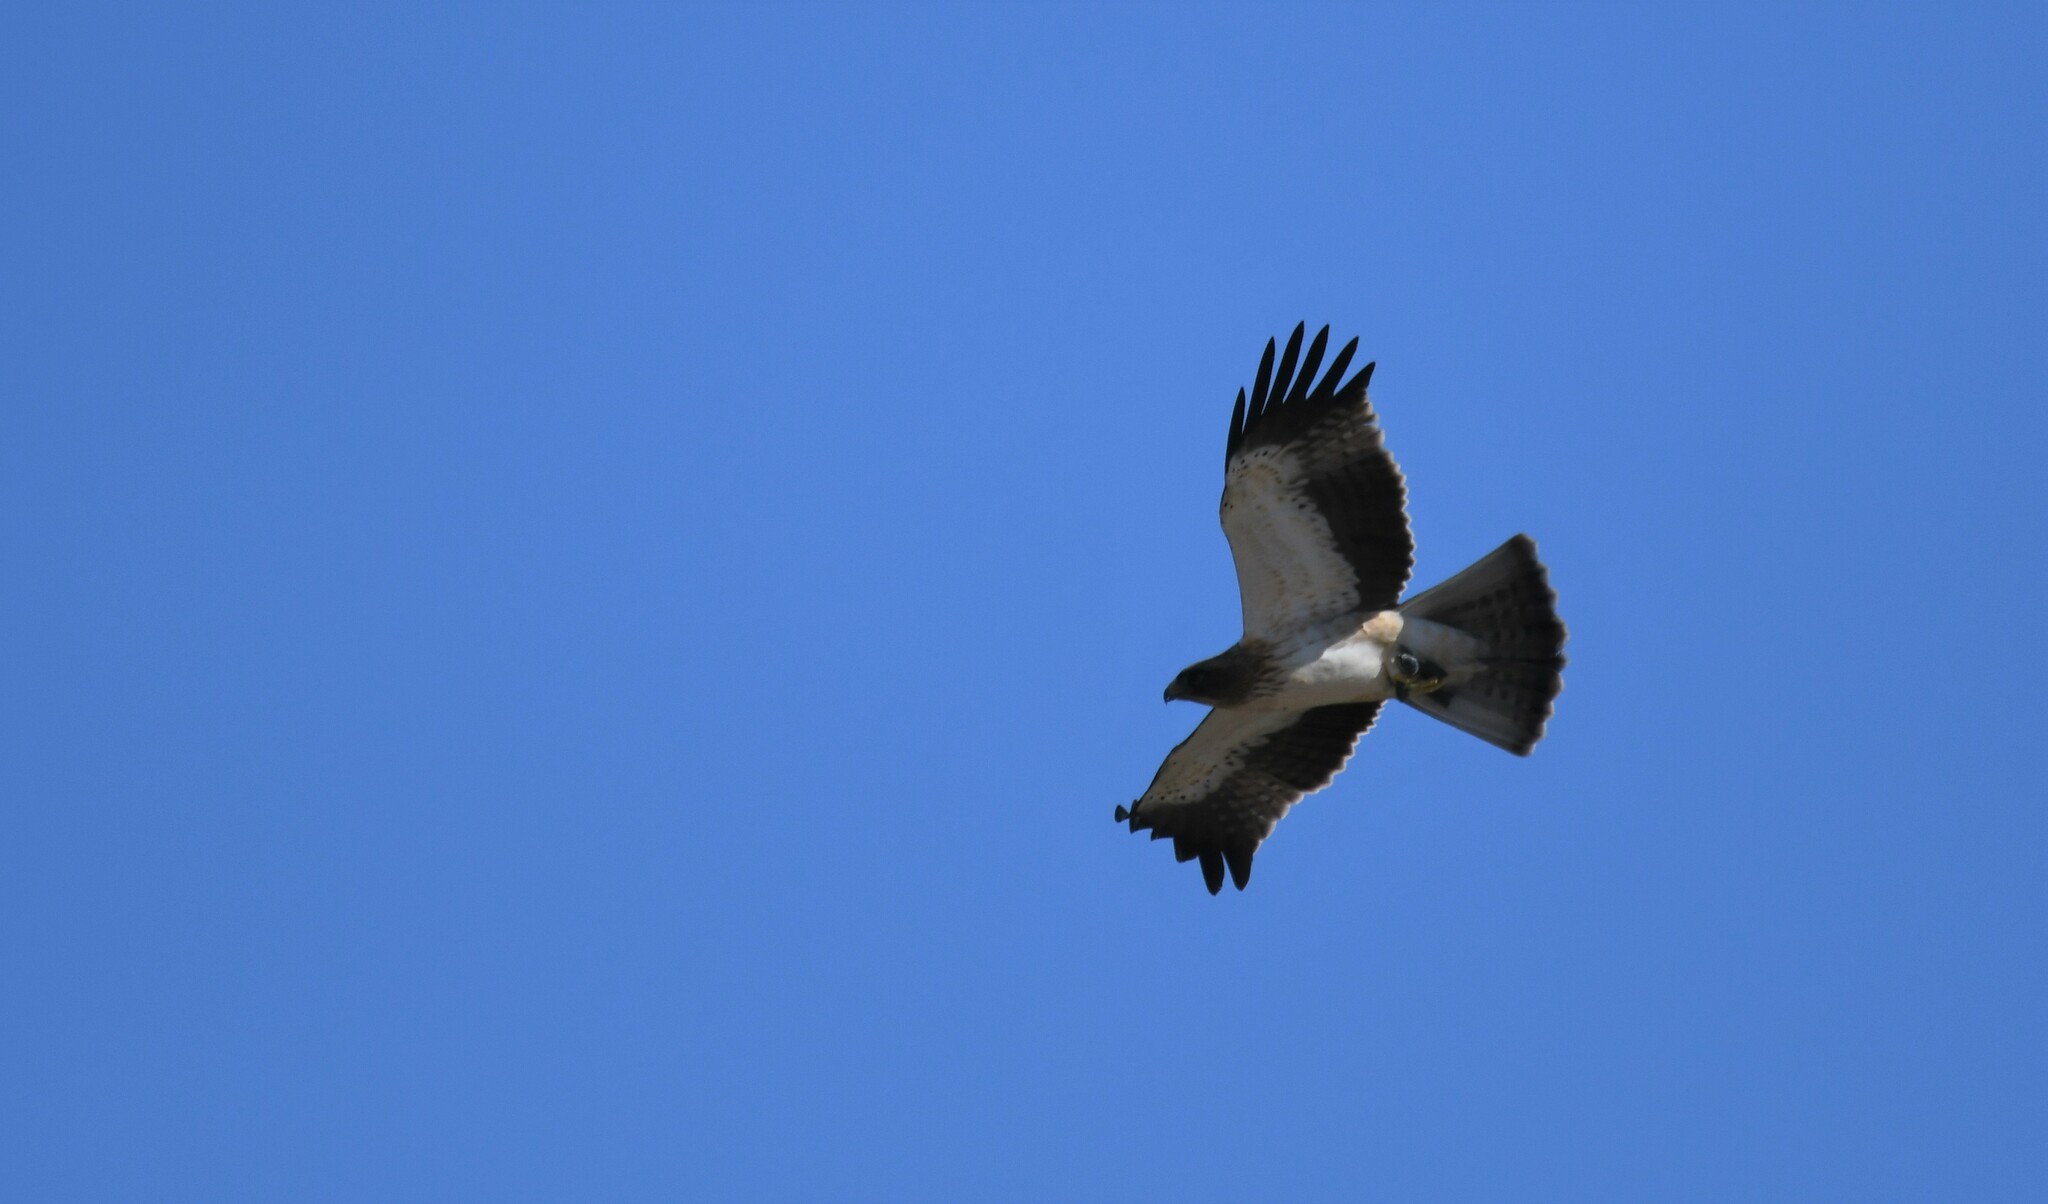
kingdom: Animalia
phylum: Chordata
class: Aves
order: Accipitriformes
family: Accipitridae
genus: Hieraaetus
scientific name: Hieraaetus pennatus
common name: Booted eagle
